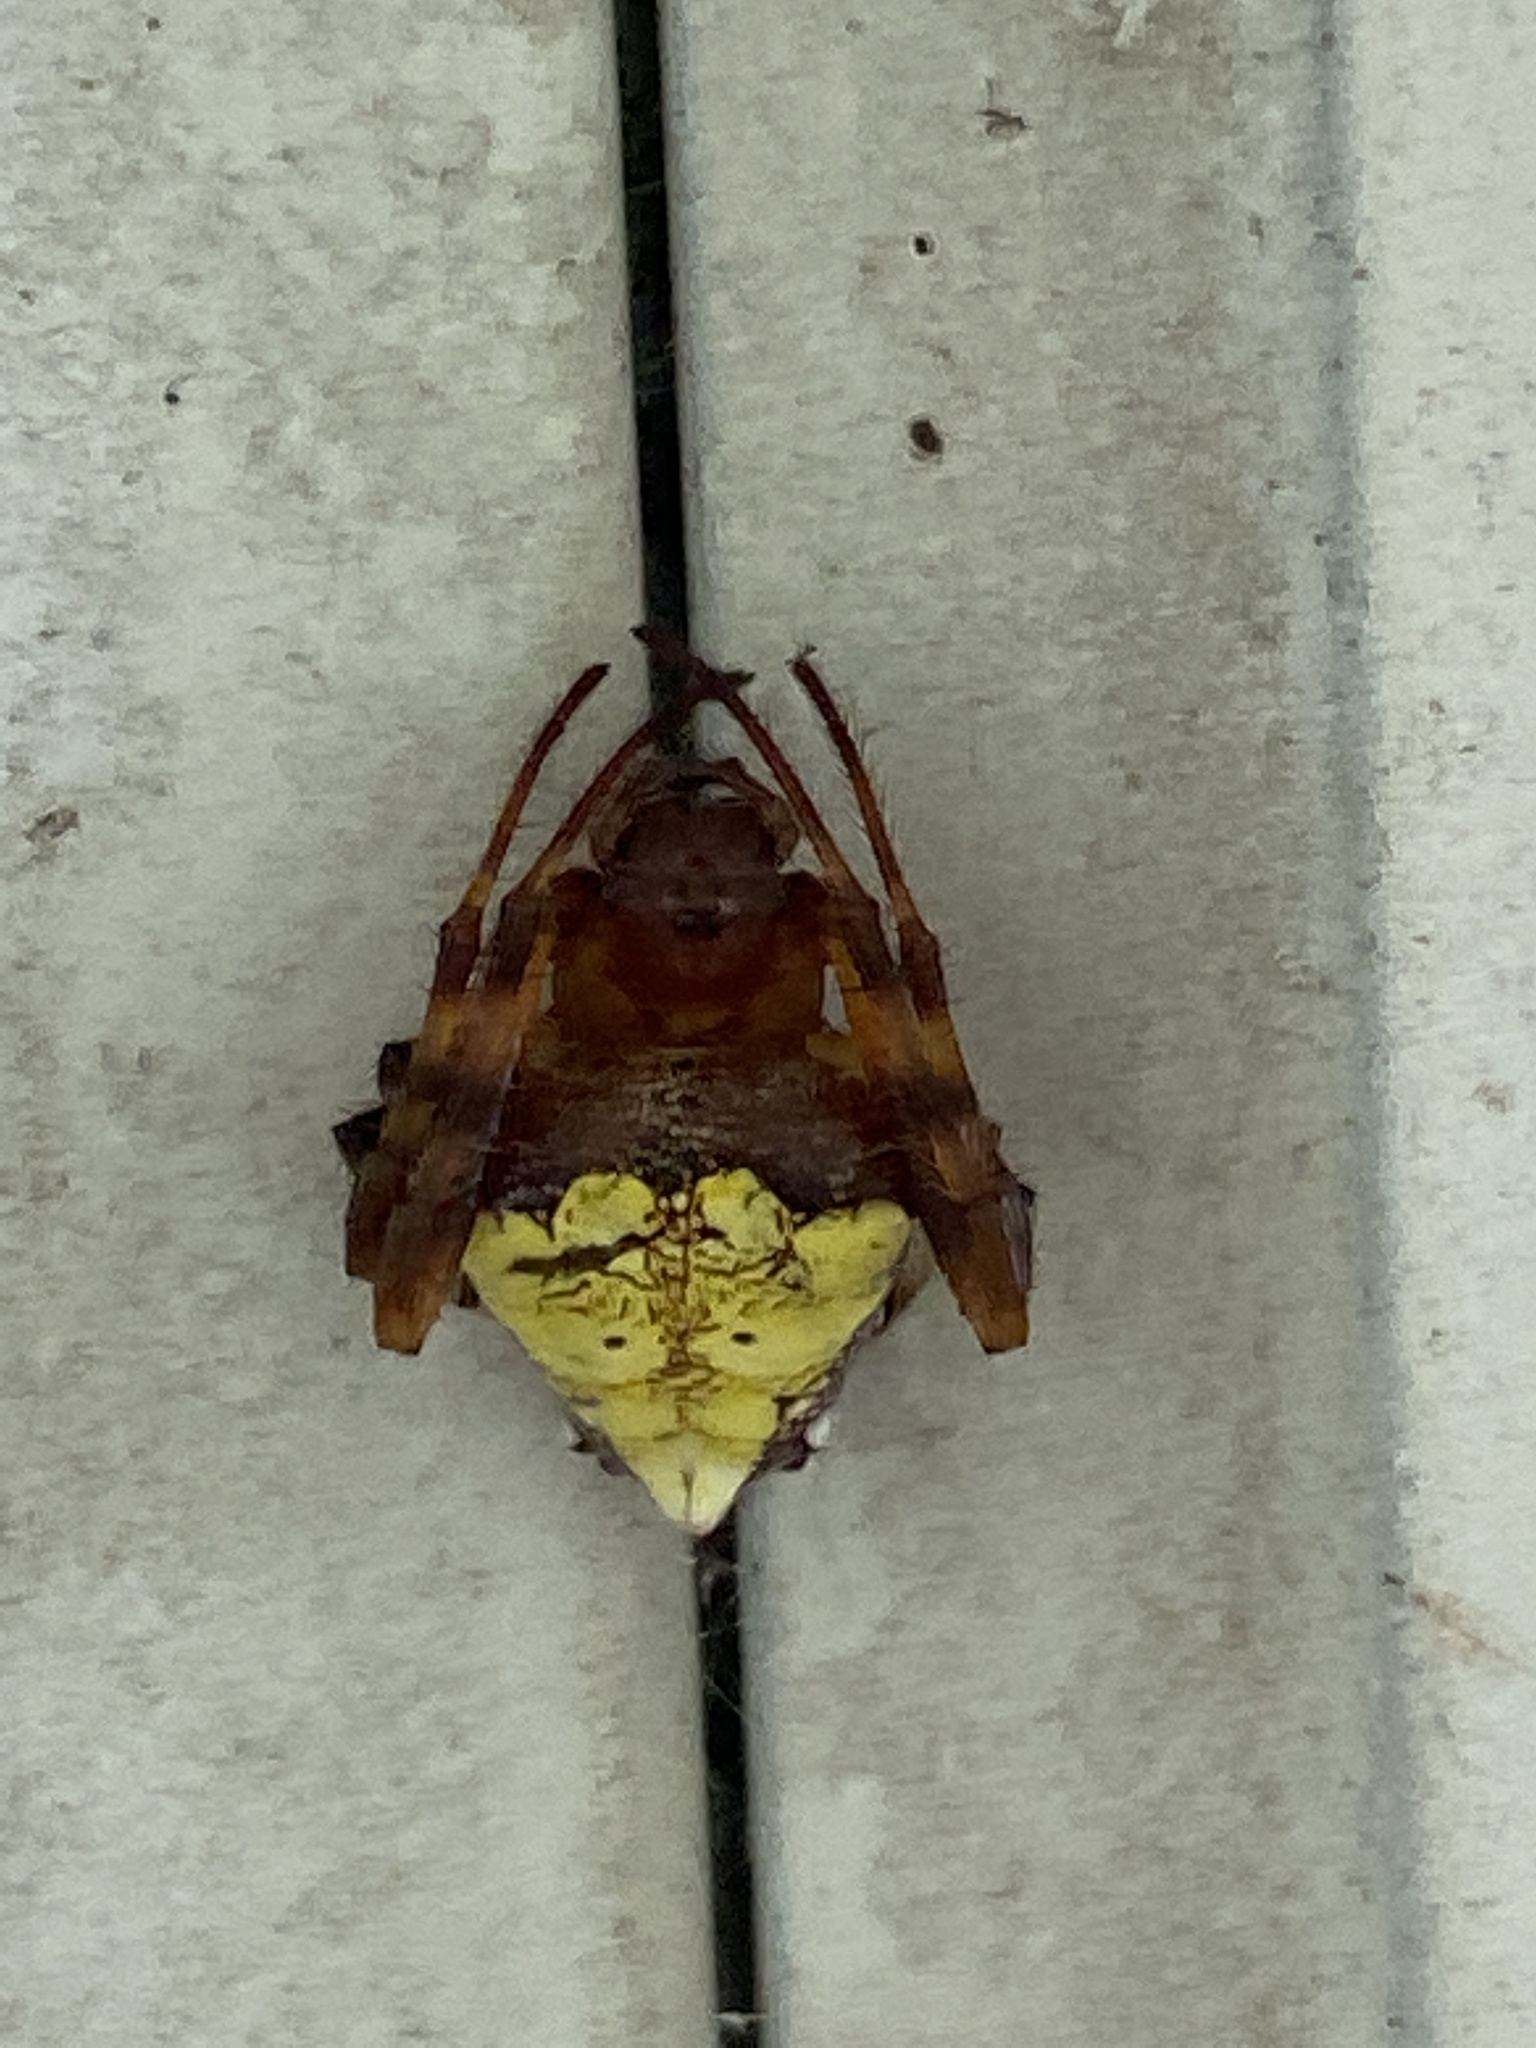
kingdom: Animalia
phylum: Arthropoda
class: Arachnida
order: Araneae
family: Araneidae
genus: Verrucosa
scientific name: Verrucosa arenata
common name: Orb weavers
